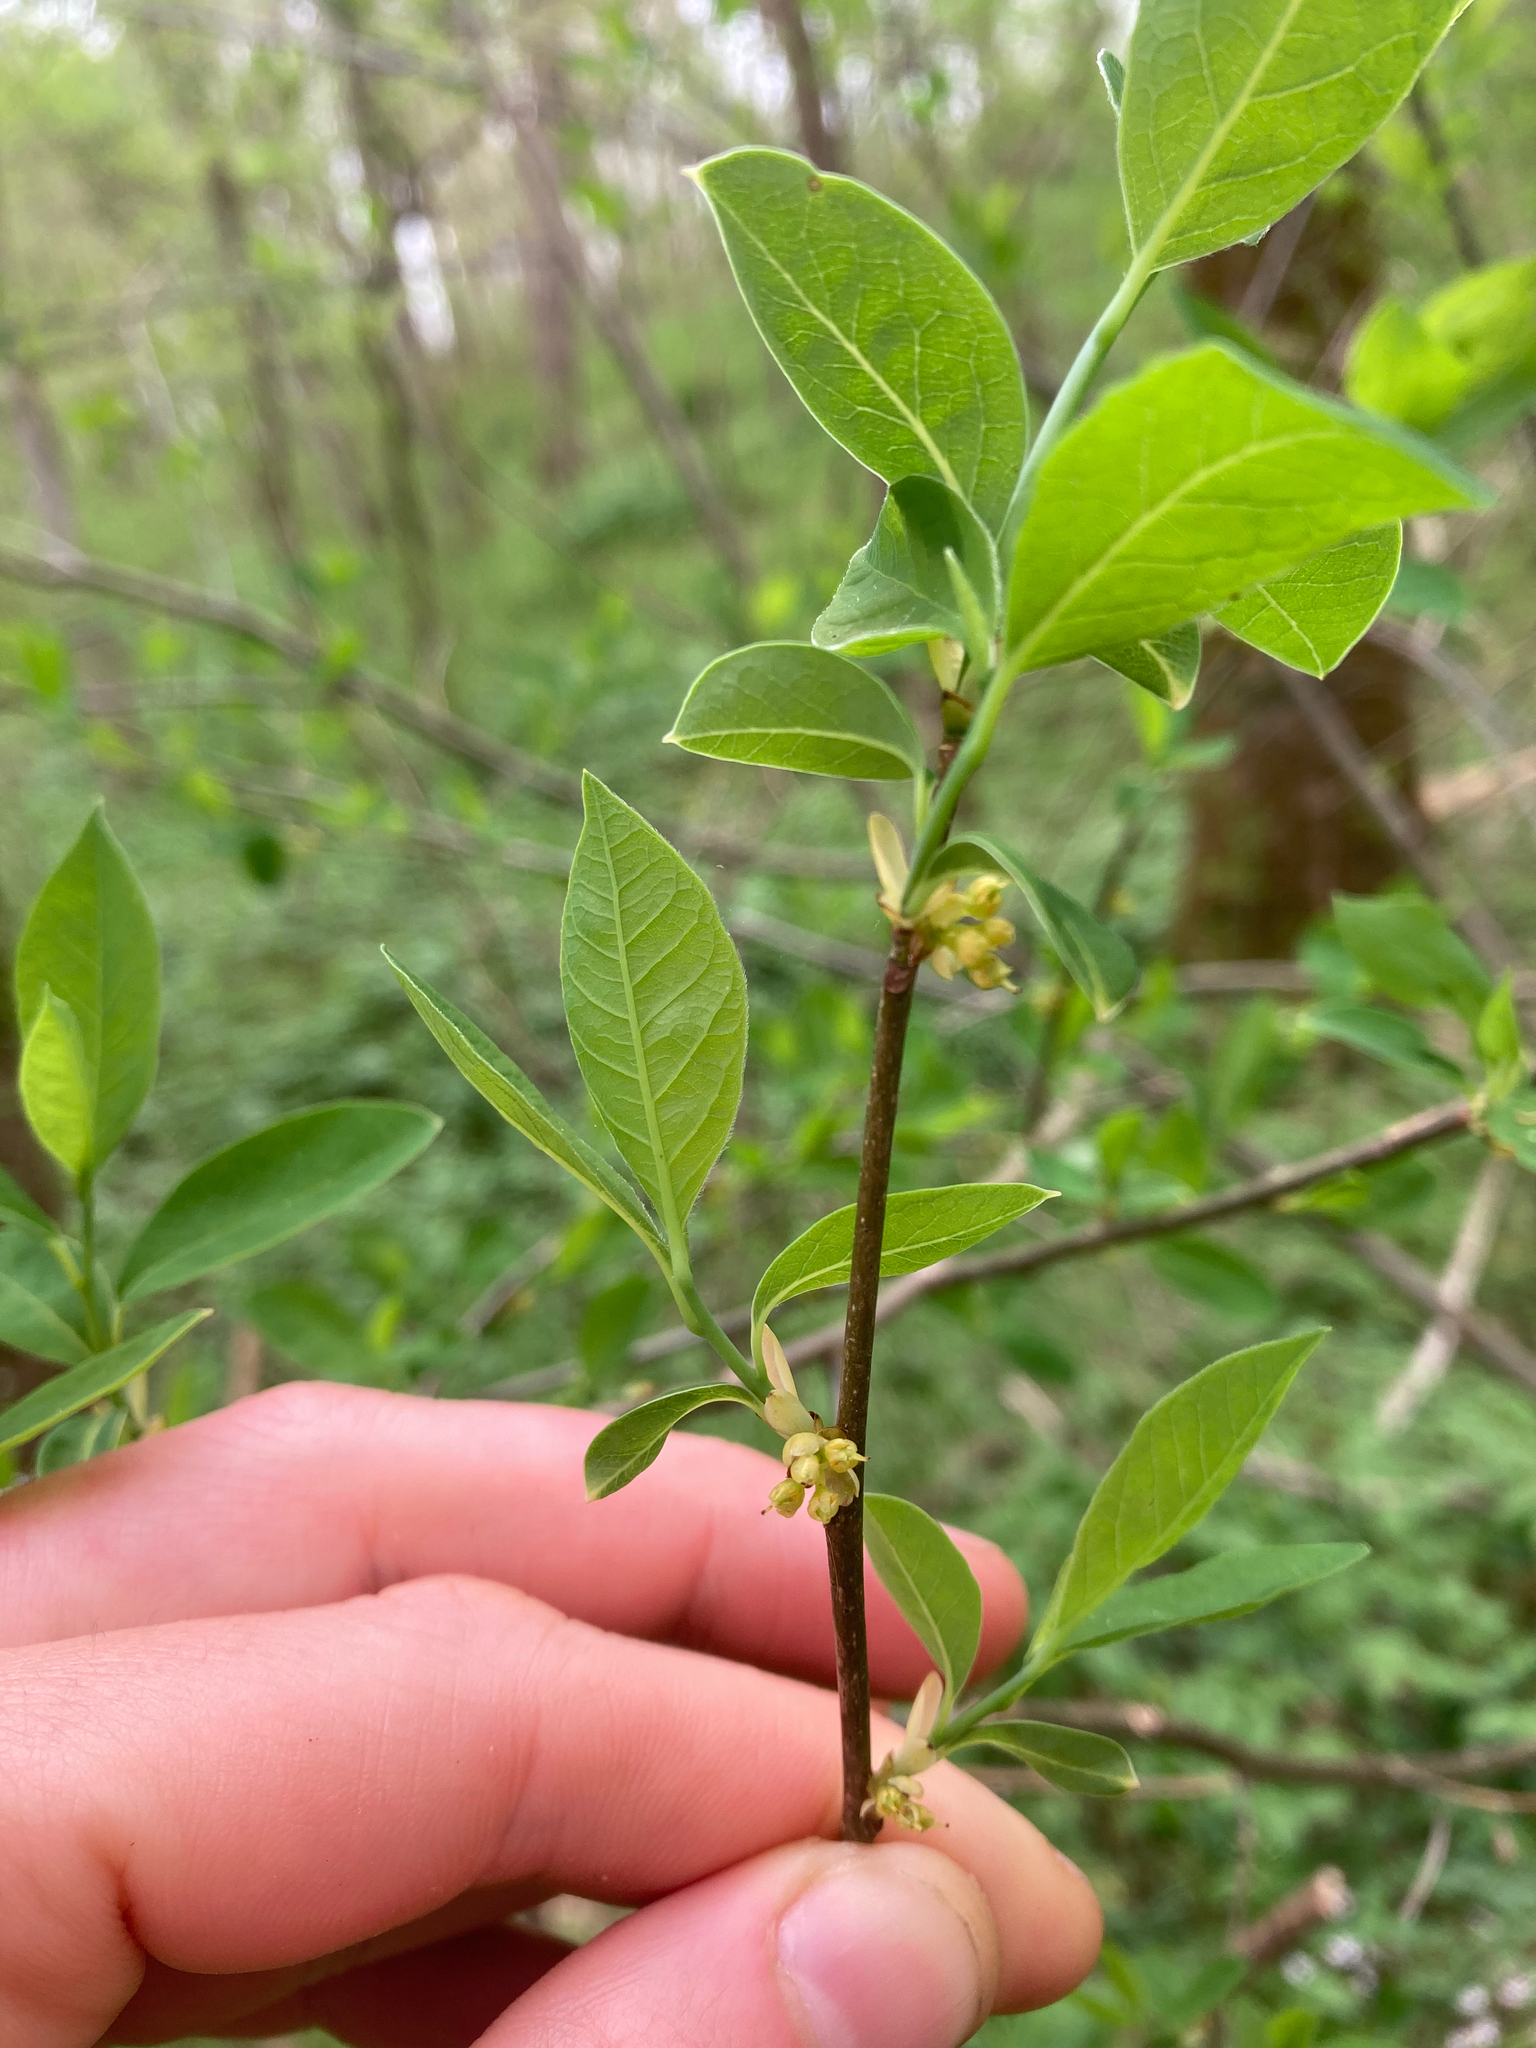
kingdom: Plantae
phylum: Tracheophyta
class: Magnoliopsida
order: Laurales
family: Lauraceae
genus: Lindera
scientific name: Lindera benzoin
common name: Spicebush
